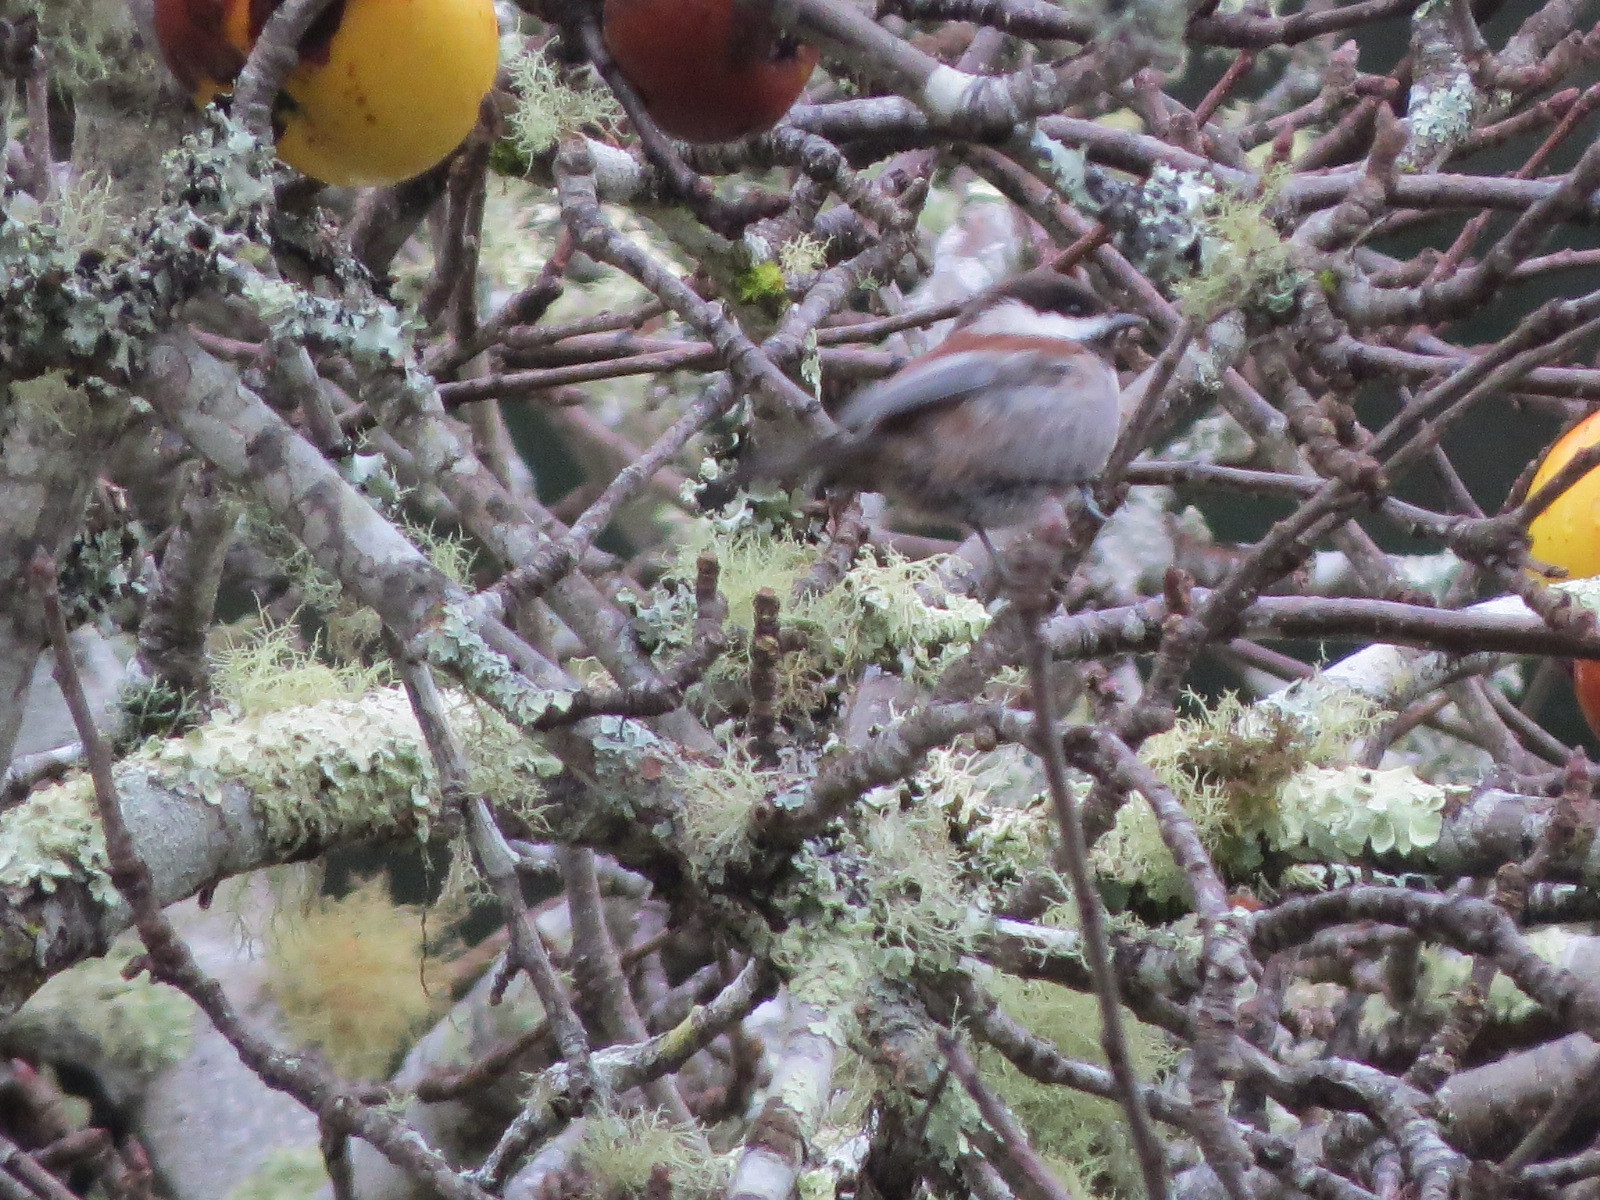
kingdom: Animalia
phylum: Chordata
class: Aves
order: Passeriformes
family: Paridae
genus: Poecile
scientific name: Poecile rufescens
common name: Chestnut-backed chickadee
